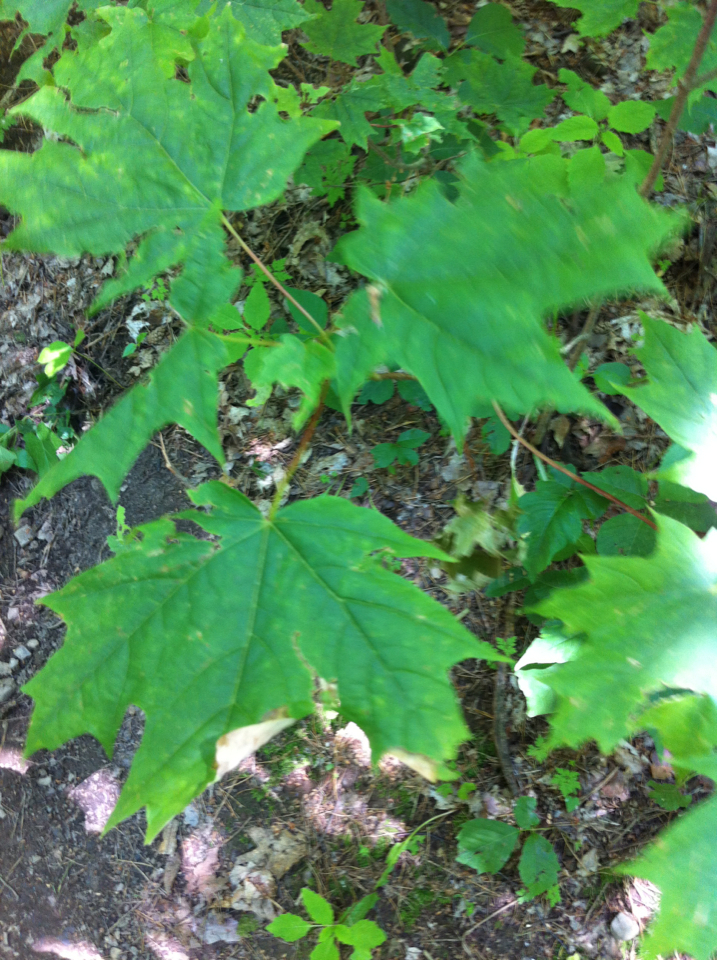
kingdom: Plantae
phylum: Tracheophyta
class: Magnoliopsida
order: Sapindales
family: Sapindaceae
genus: Acer
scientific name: Acer saccharum
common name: Sugar maple
